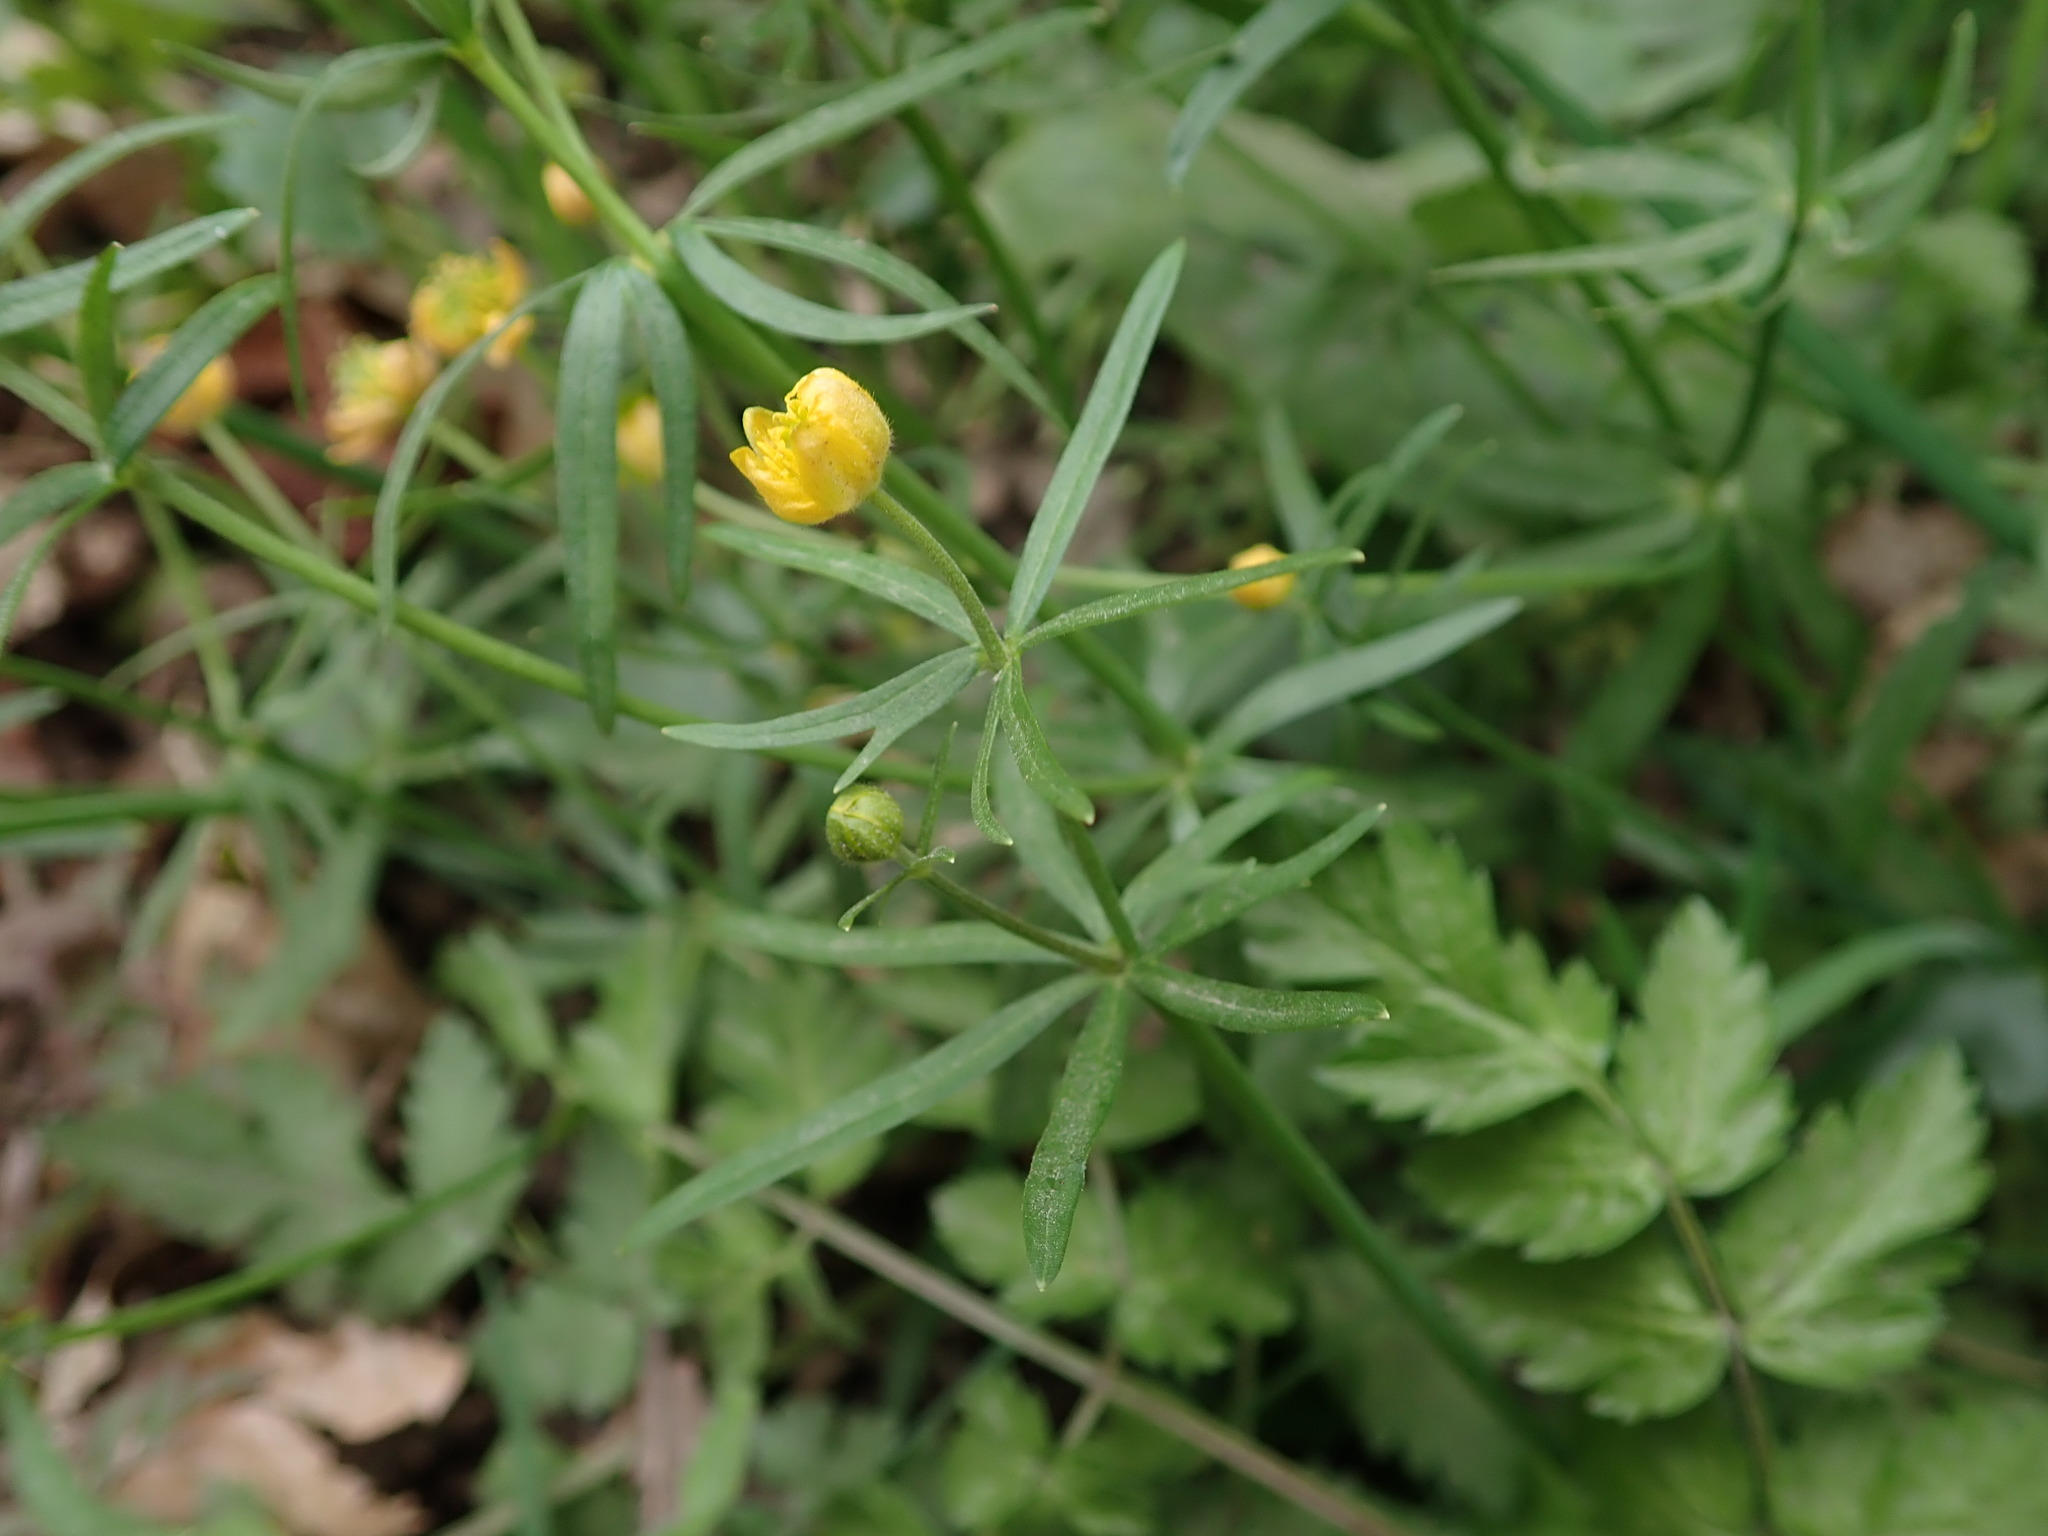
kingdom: Plantae
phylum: Tracheophyta
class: Magnoliopsida
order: Ranunculales
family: Ranunculaceae
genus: Ranunculus
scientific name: Ranunculus auricomus
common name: Goldilocks buttercup
